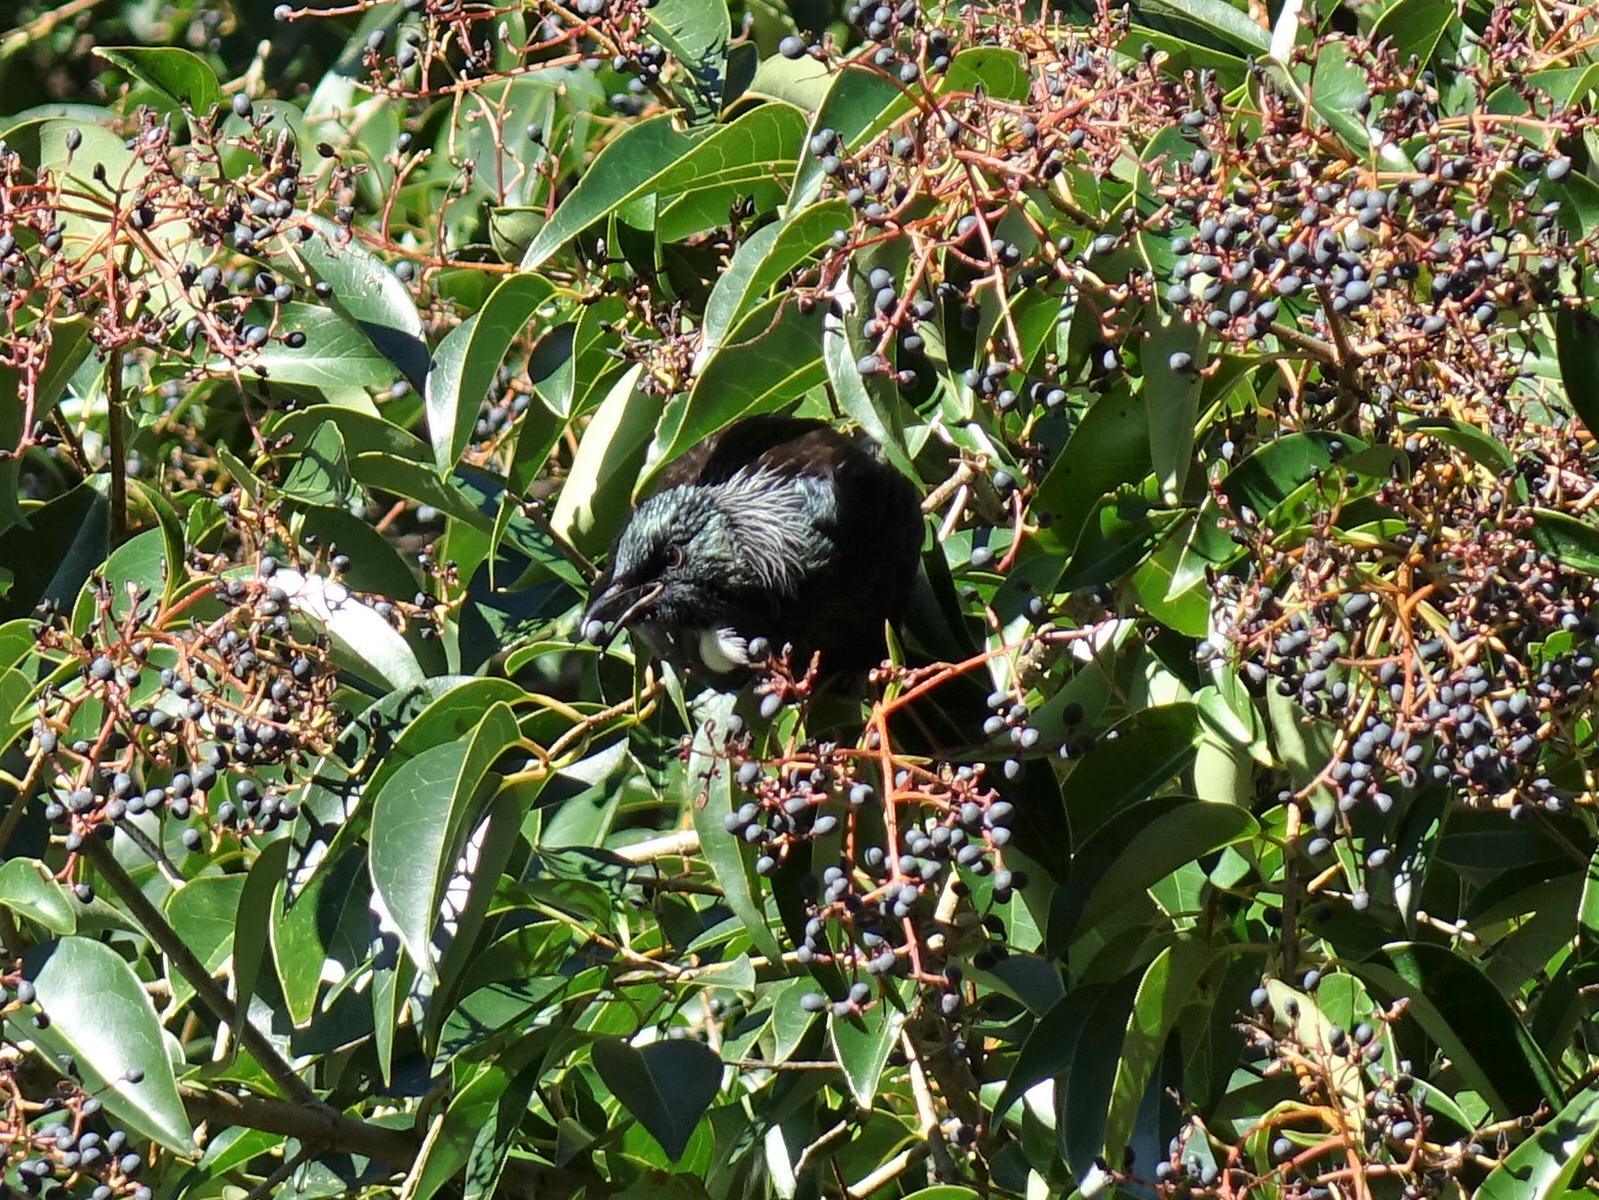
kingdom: Animalia
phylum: Chordata
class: Aves
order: Passeriformes
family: Meliphagidae
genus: Prosthemadera
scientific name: Prosthemadera novaeseelandiae
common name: Tui
